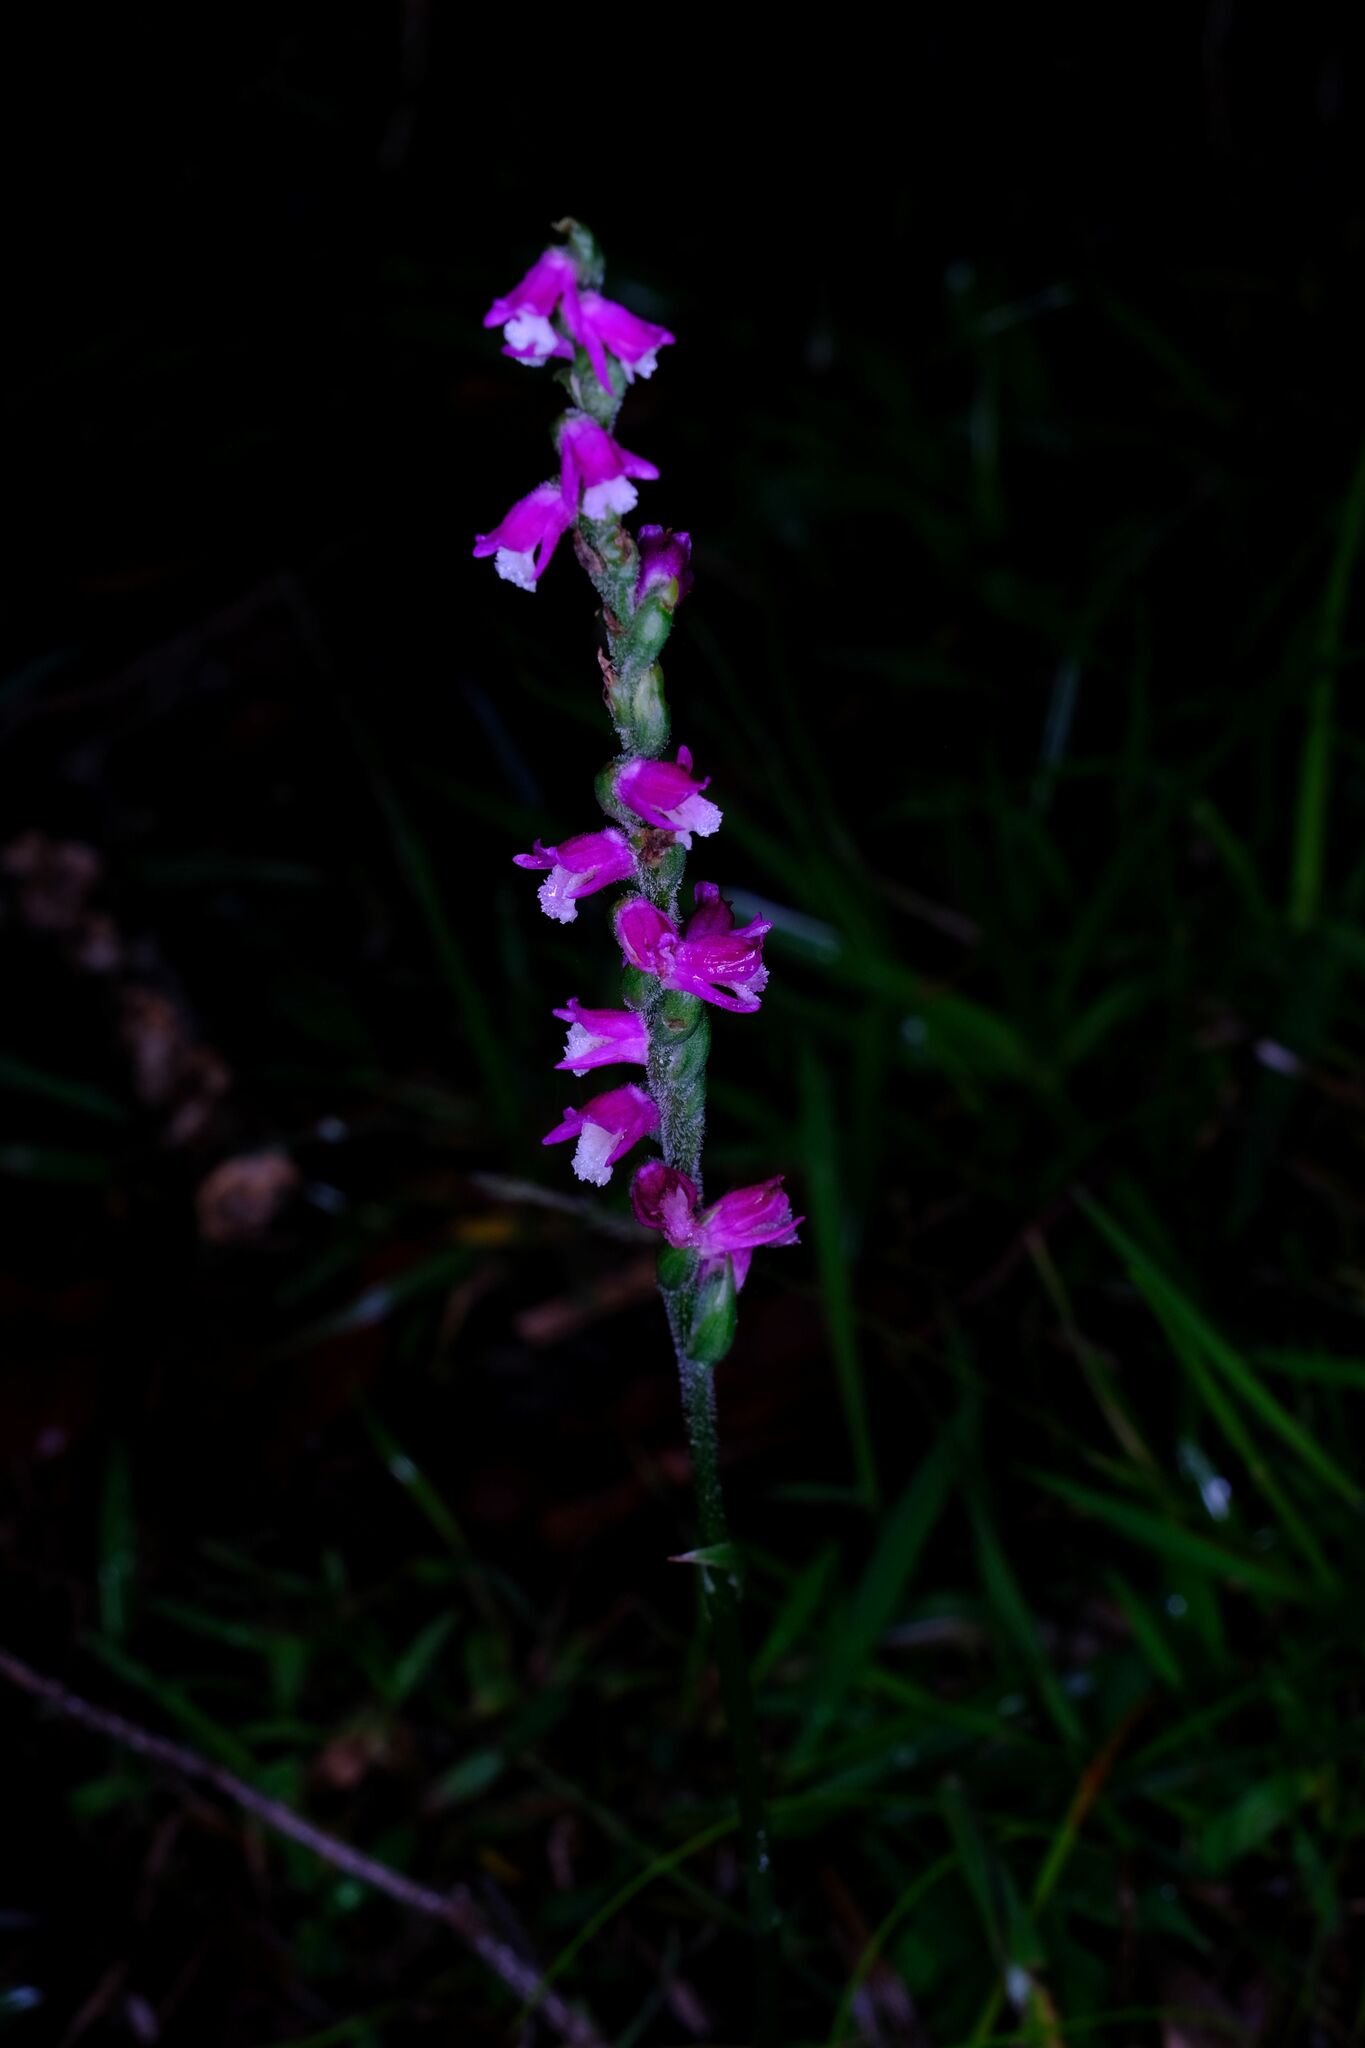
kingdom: Plantae
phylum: Tracheophyta
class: Liliopsida
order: Asparagales
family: Orchidaceae
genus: Spiranthes
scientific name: Spiranthes australis
